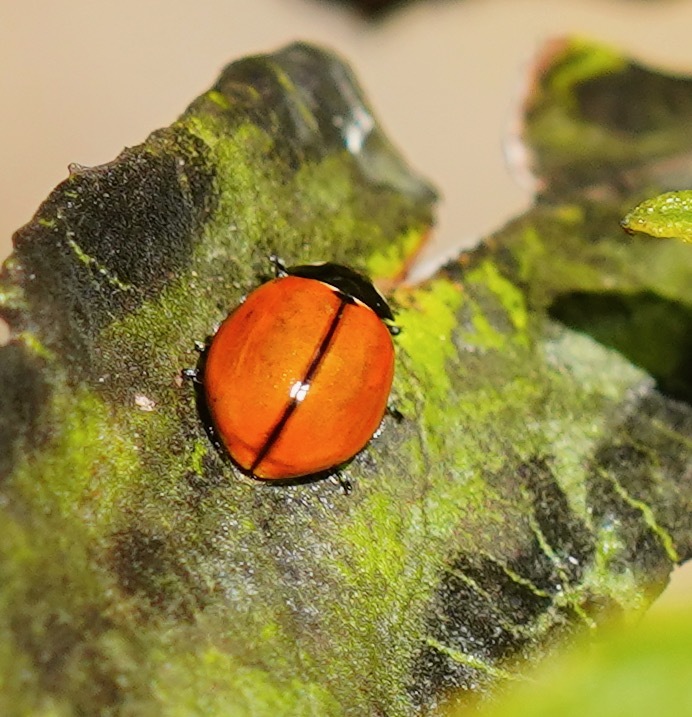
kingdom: Animalia
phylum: Arthropoda
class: Insecta
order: Coleoptera
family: Coccinellidae
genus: Coccinella
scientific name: Coccinella californica
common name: Lady beetle
